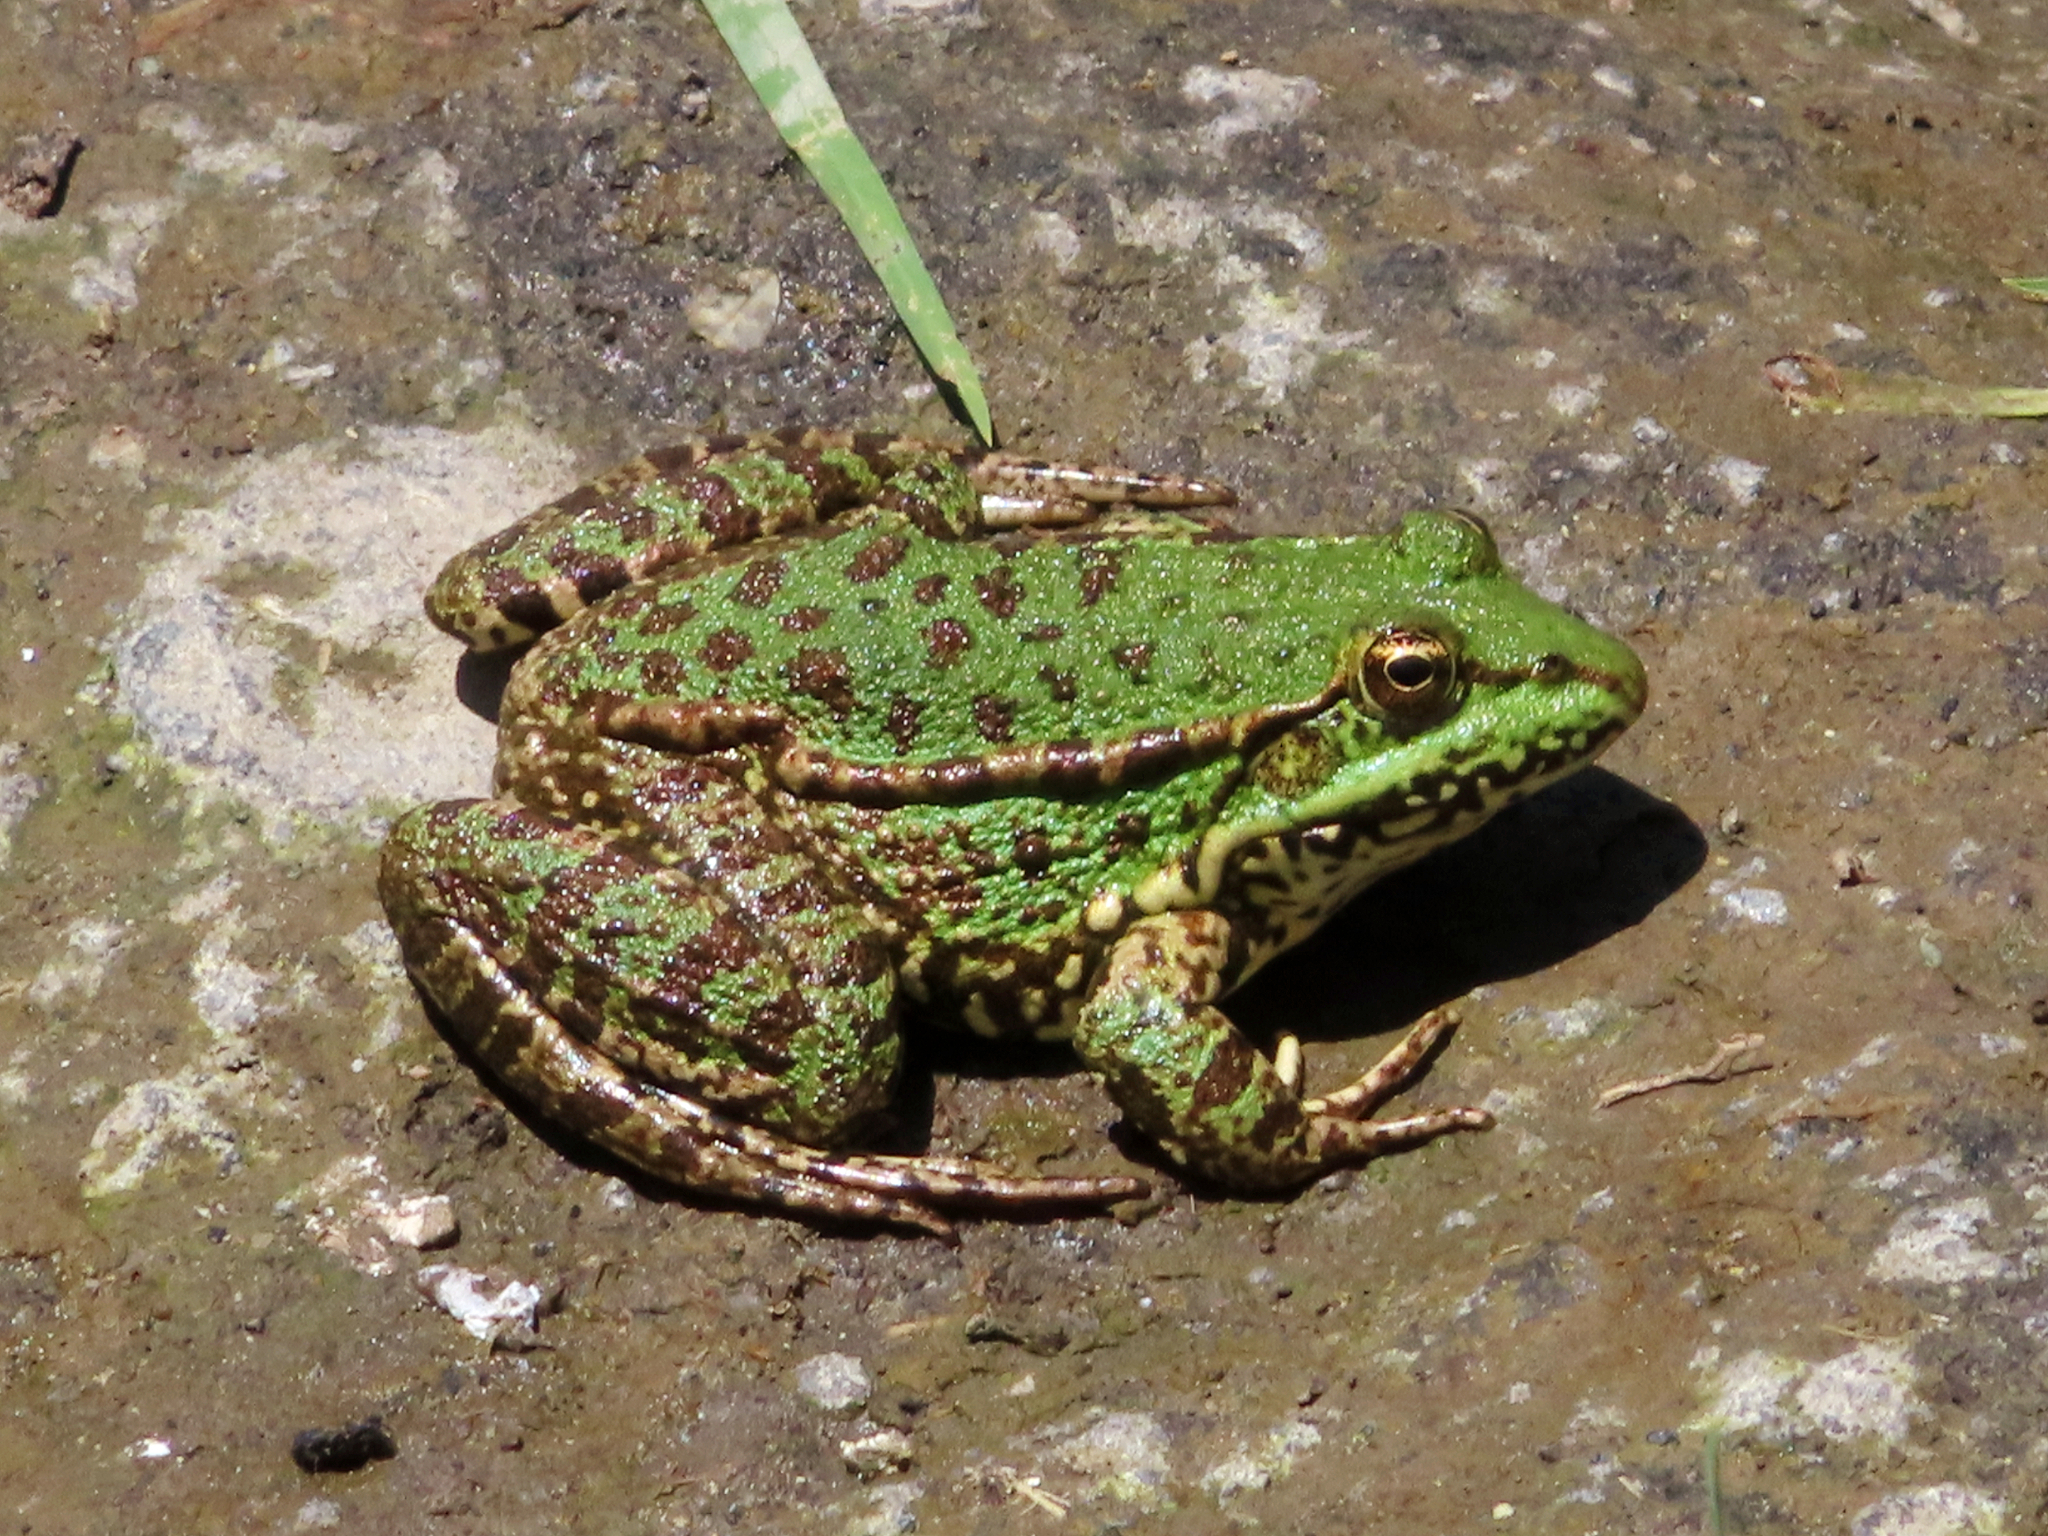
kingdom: Animalia
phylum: Chordata
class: Amphibia
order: Anura
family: Ranidae
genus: Pelophylax
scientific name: Pelophylax ridibundus
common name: Marsh frog
